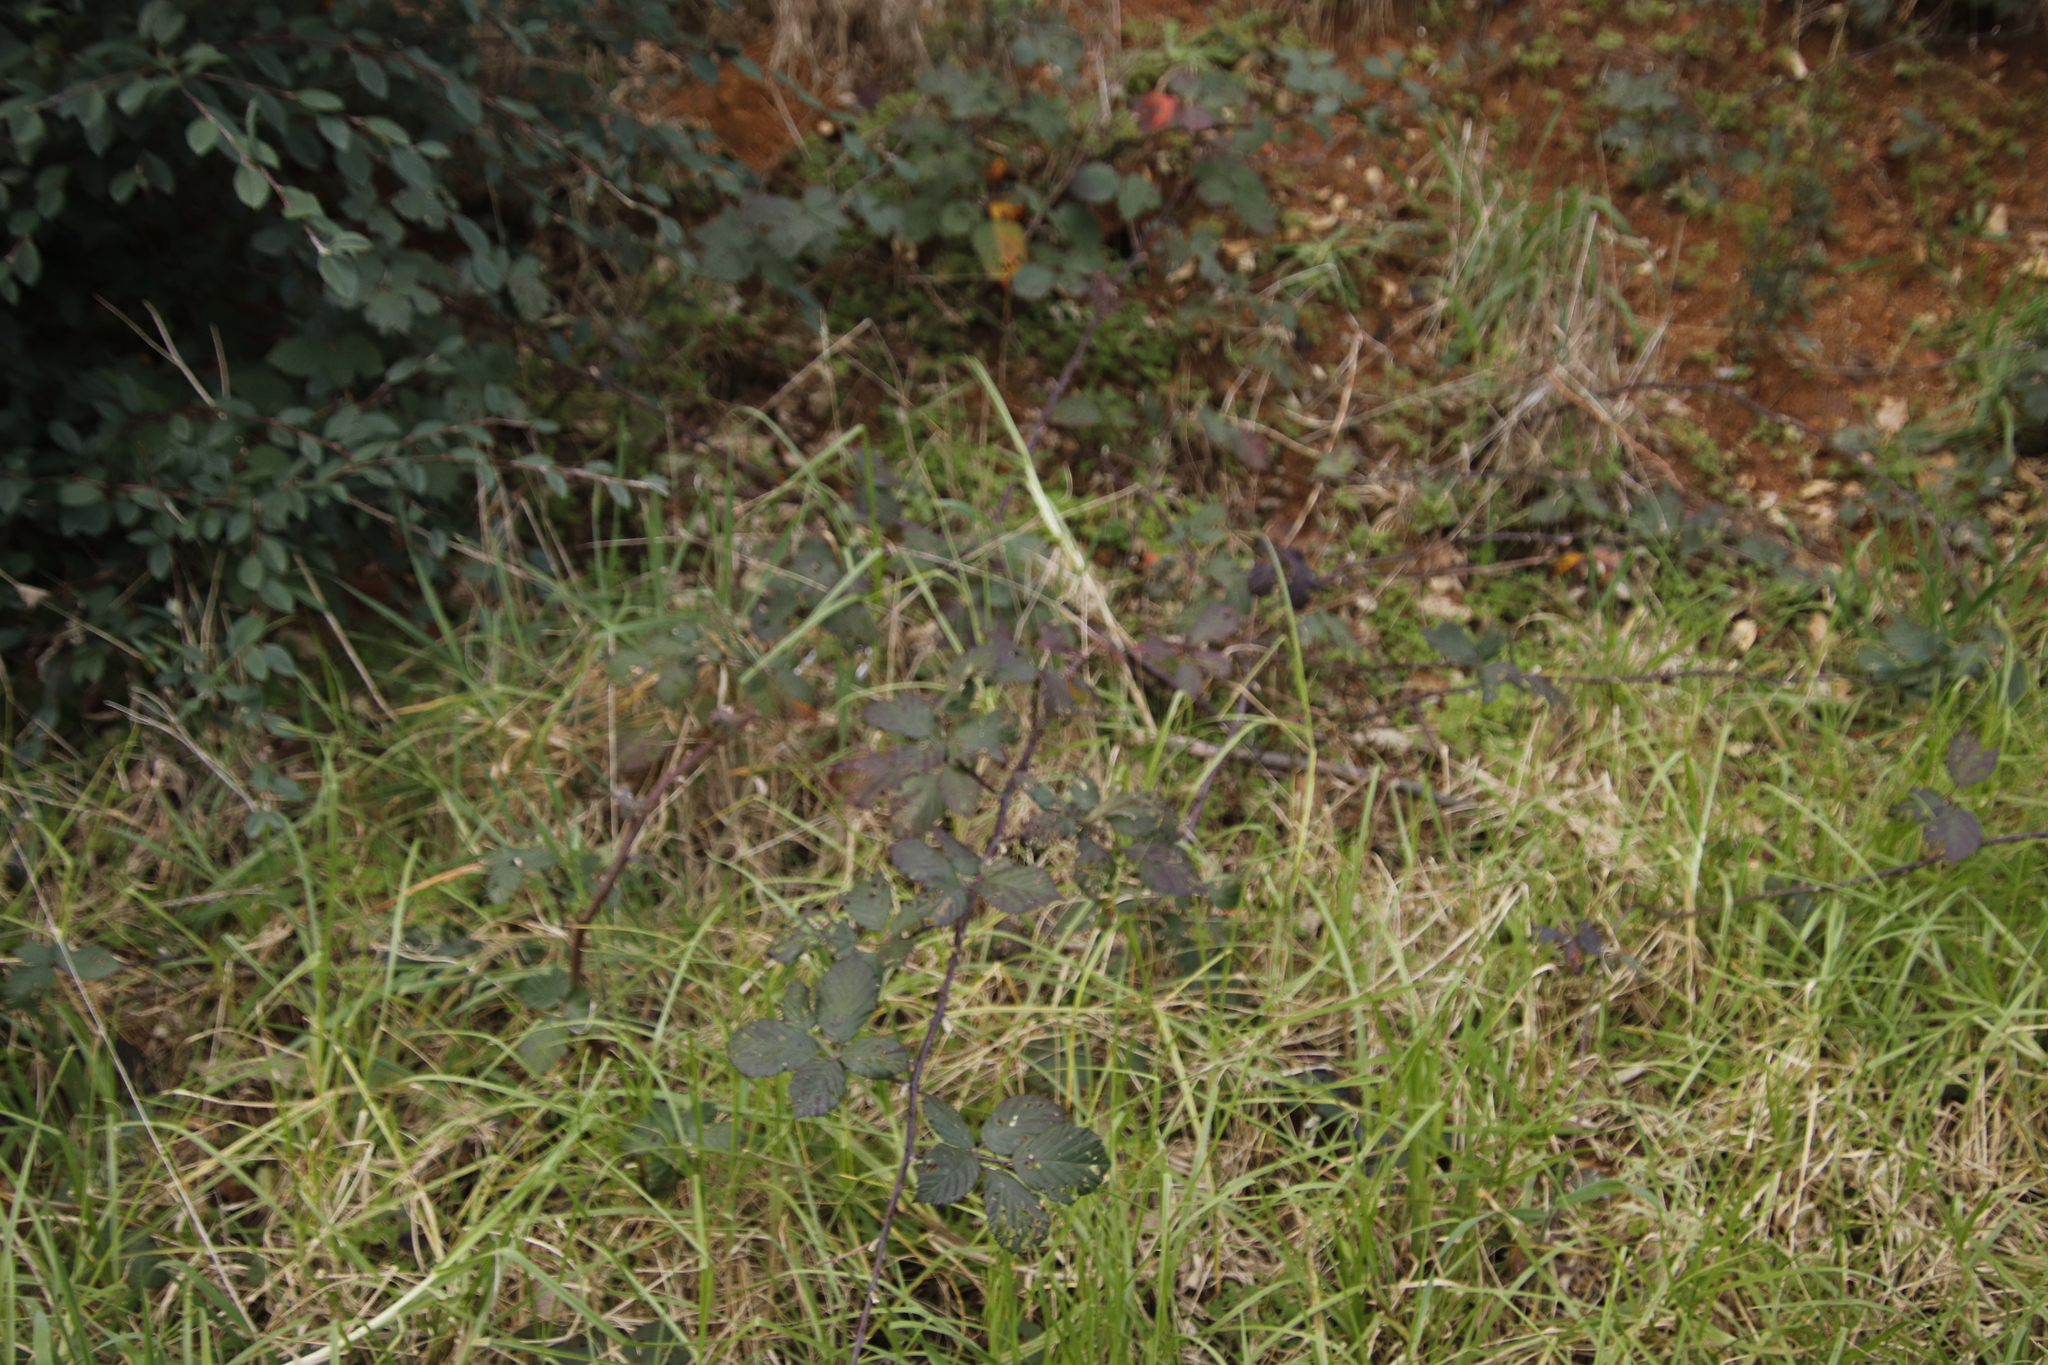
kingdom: Plantae
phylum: Tracheophyta
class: Magnoliopsida
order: Rosales
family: Rosaceae
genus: Rubus
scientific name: Rubus armeniacus
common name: Himalayan blackberry
